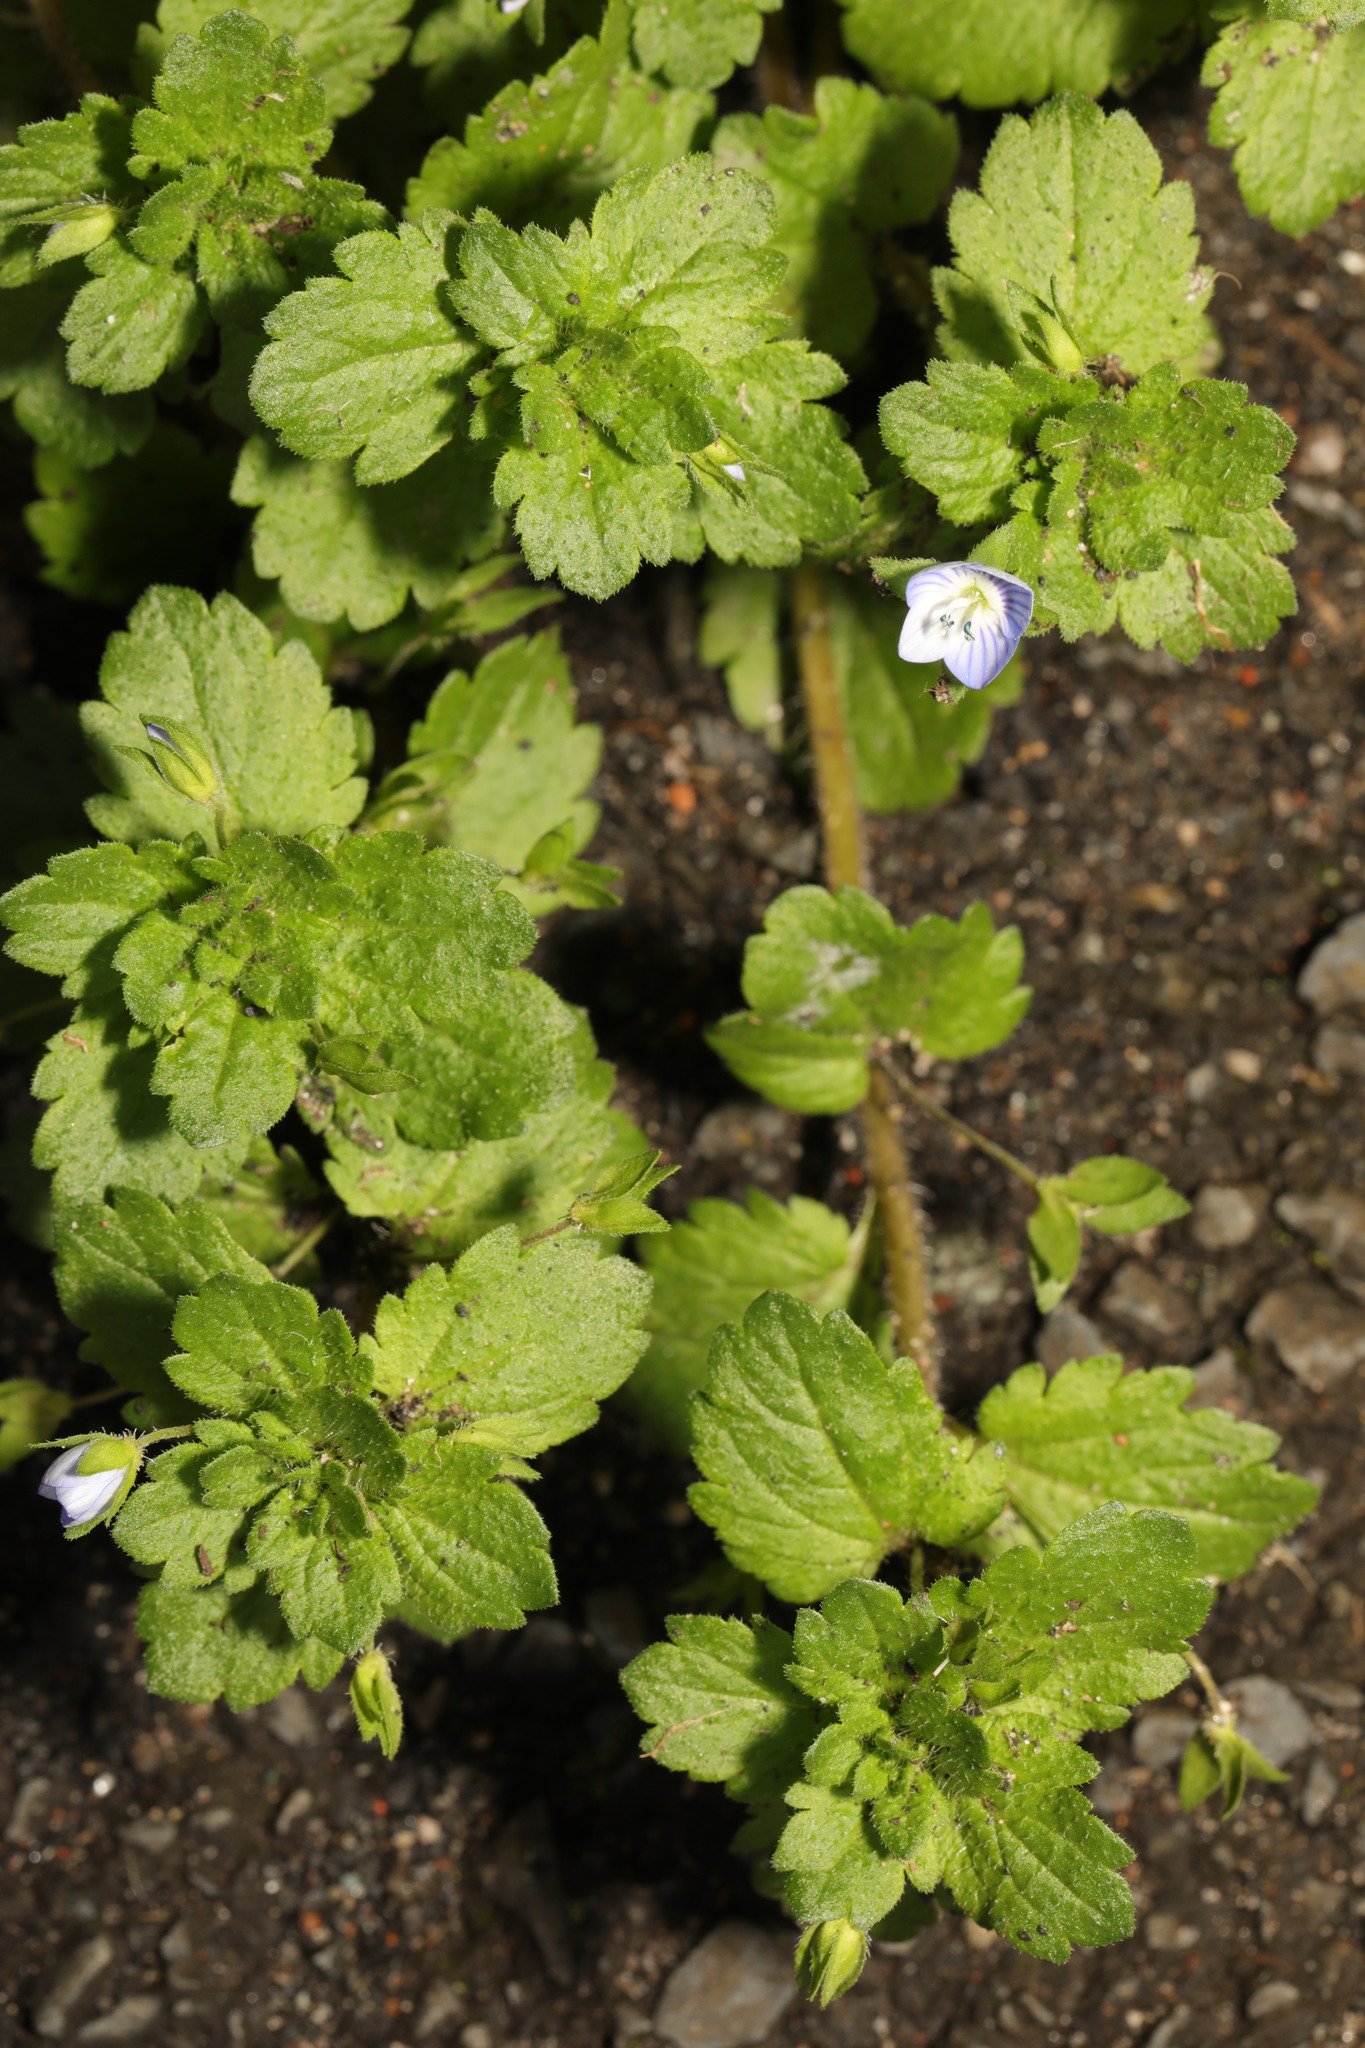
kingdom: Plantae
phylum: Tracheophyta
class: Magnoliopsida
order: Lamiales
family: Plantaginaceae
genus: Veronica
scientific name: Veronica persica
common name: Common field-speedwell
